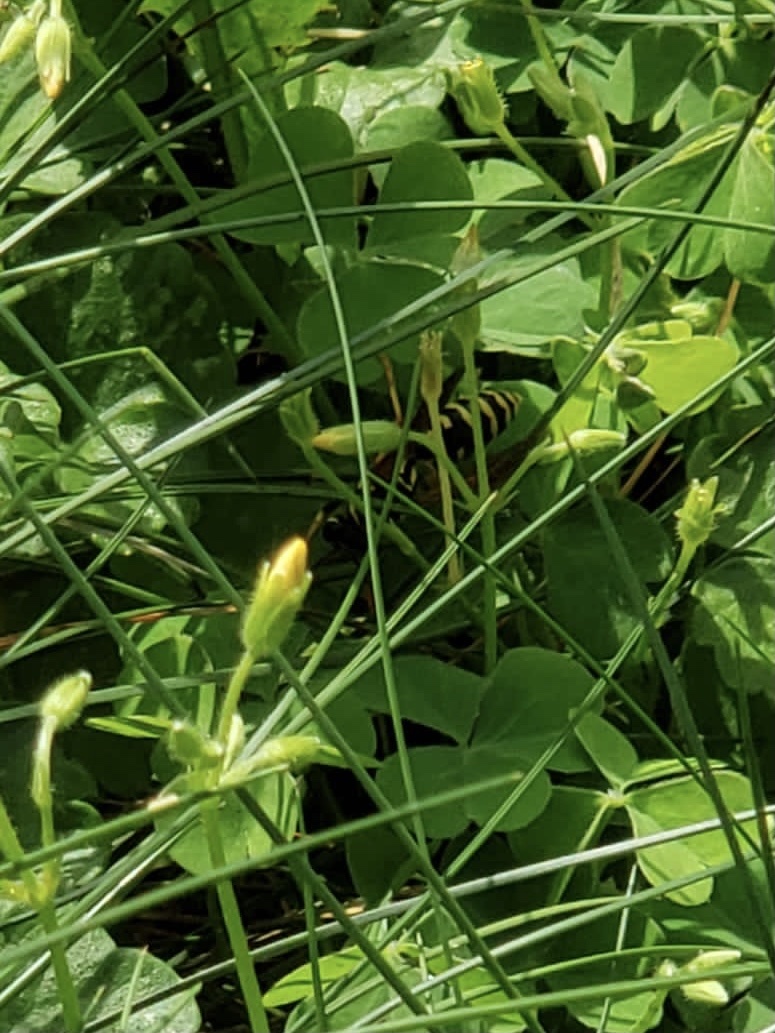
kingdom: Animalia
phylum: Arthropoda
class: Insecta
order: Hymenoptera
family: Eumenidae
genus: Polistes
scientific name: Polistes dominula
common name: Paper wasp
